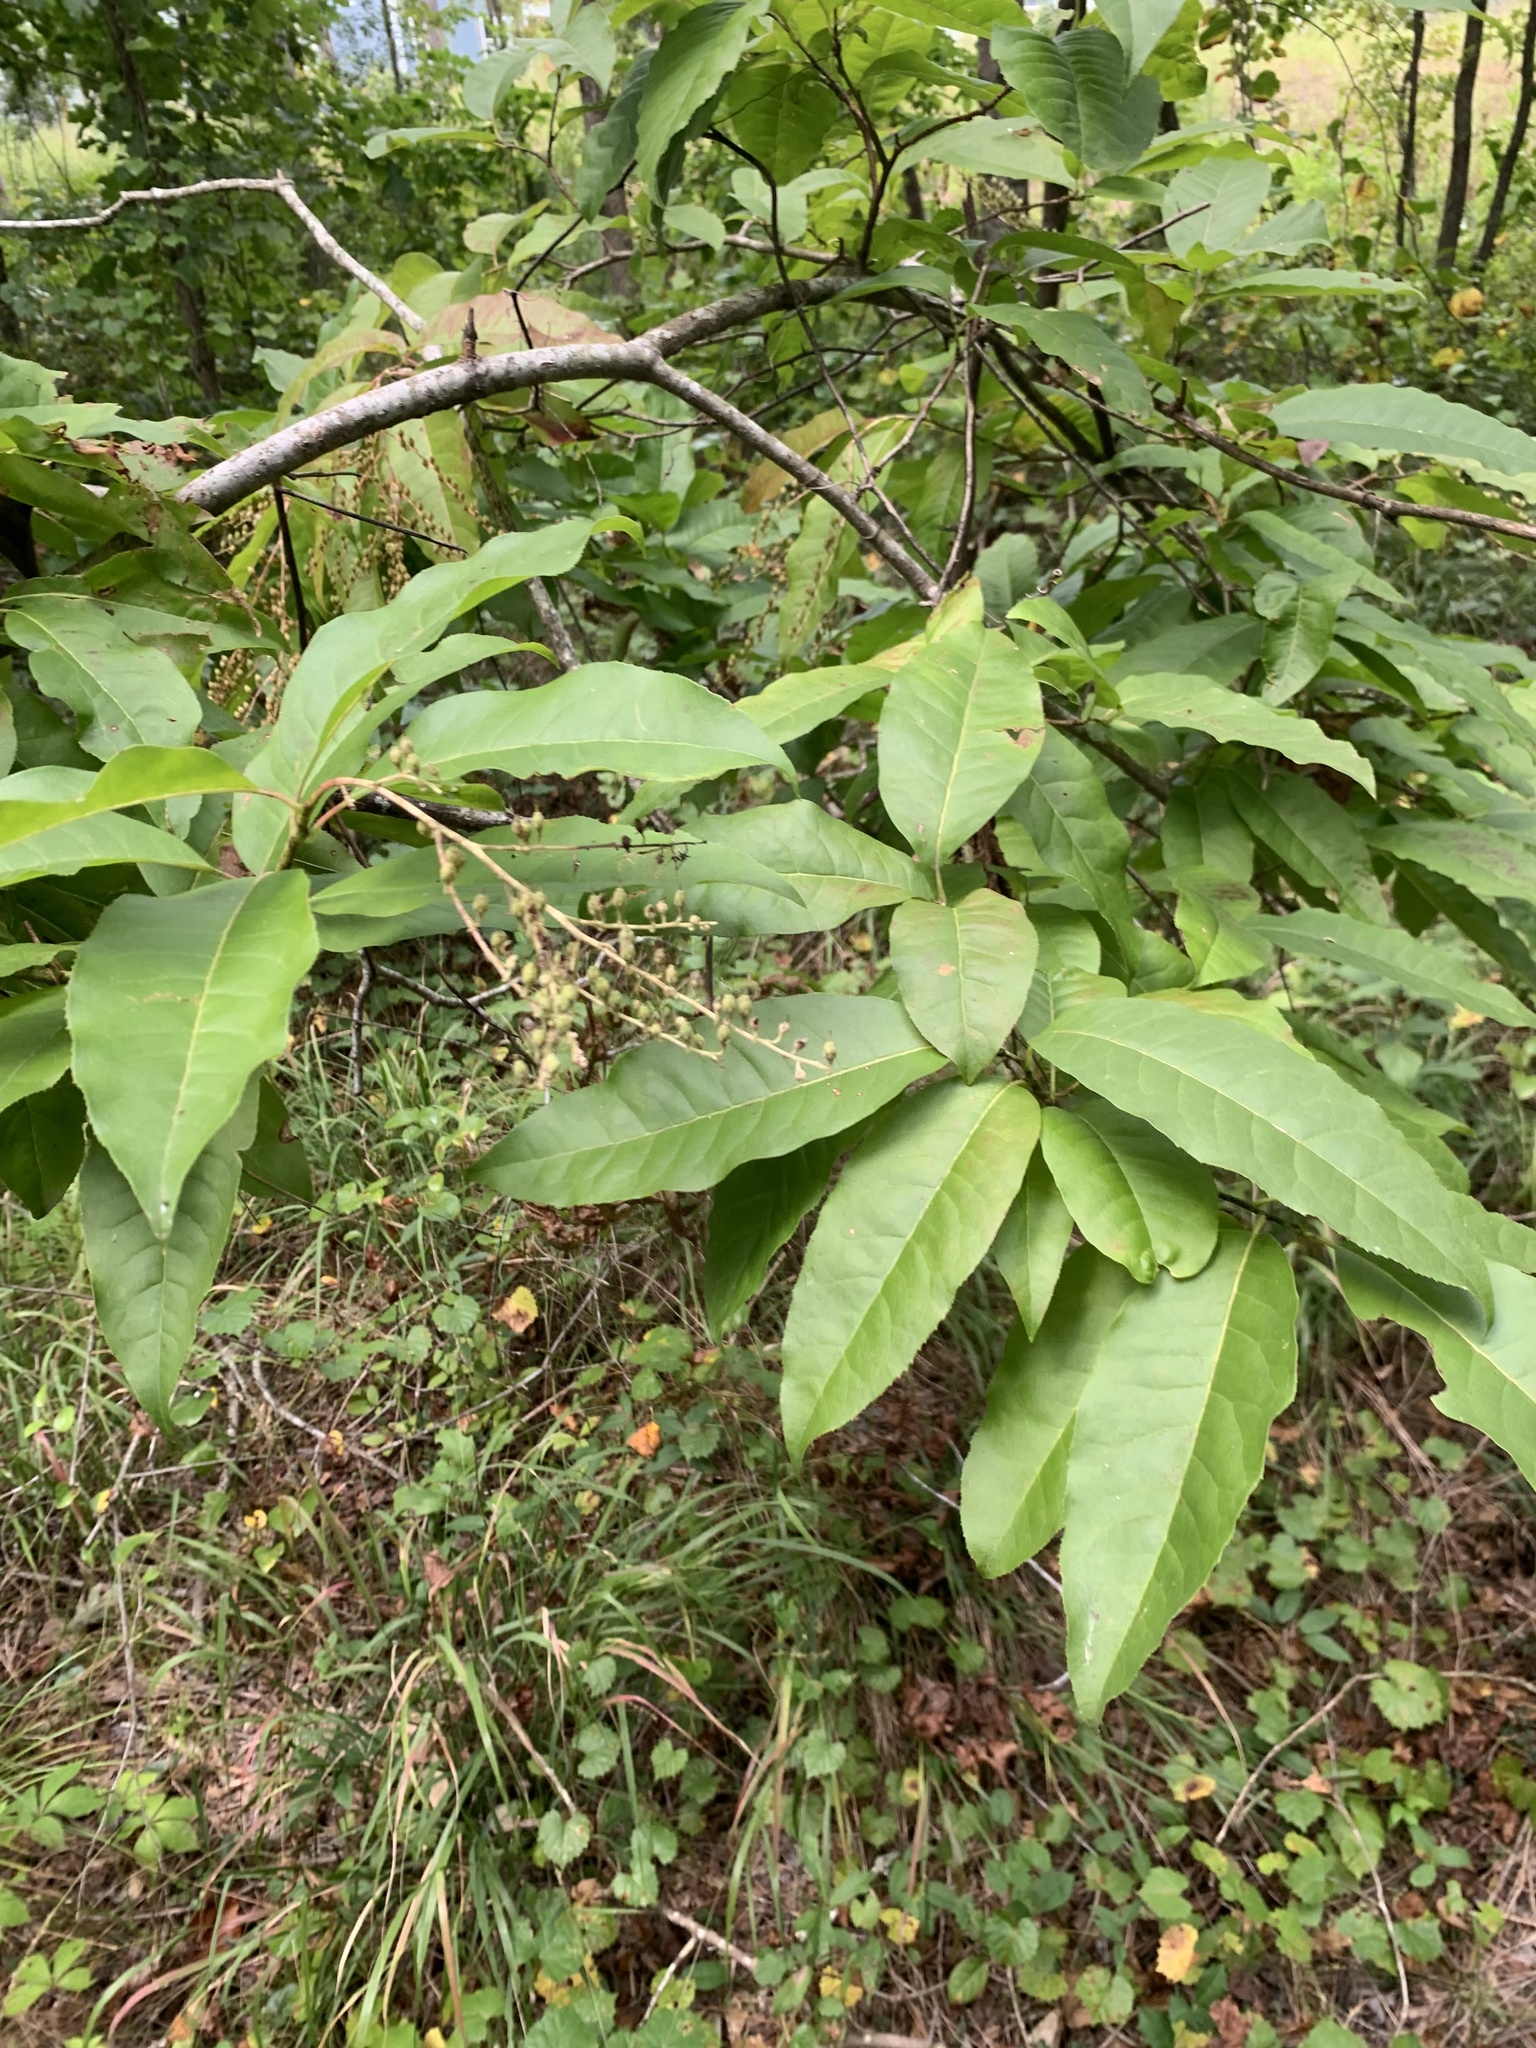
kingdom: Plantae
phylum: Tracheophyta
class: Magnoliopsida
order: Ericales
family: Ericaceae
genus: Oxydendrum
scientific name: Oxydendrum arboreum
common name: Sourwood
